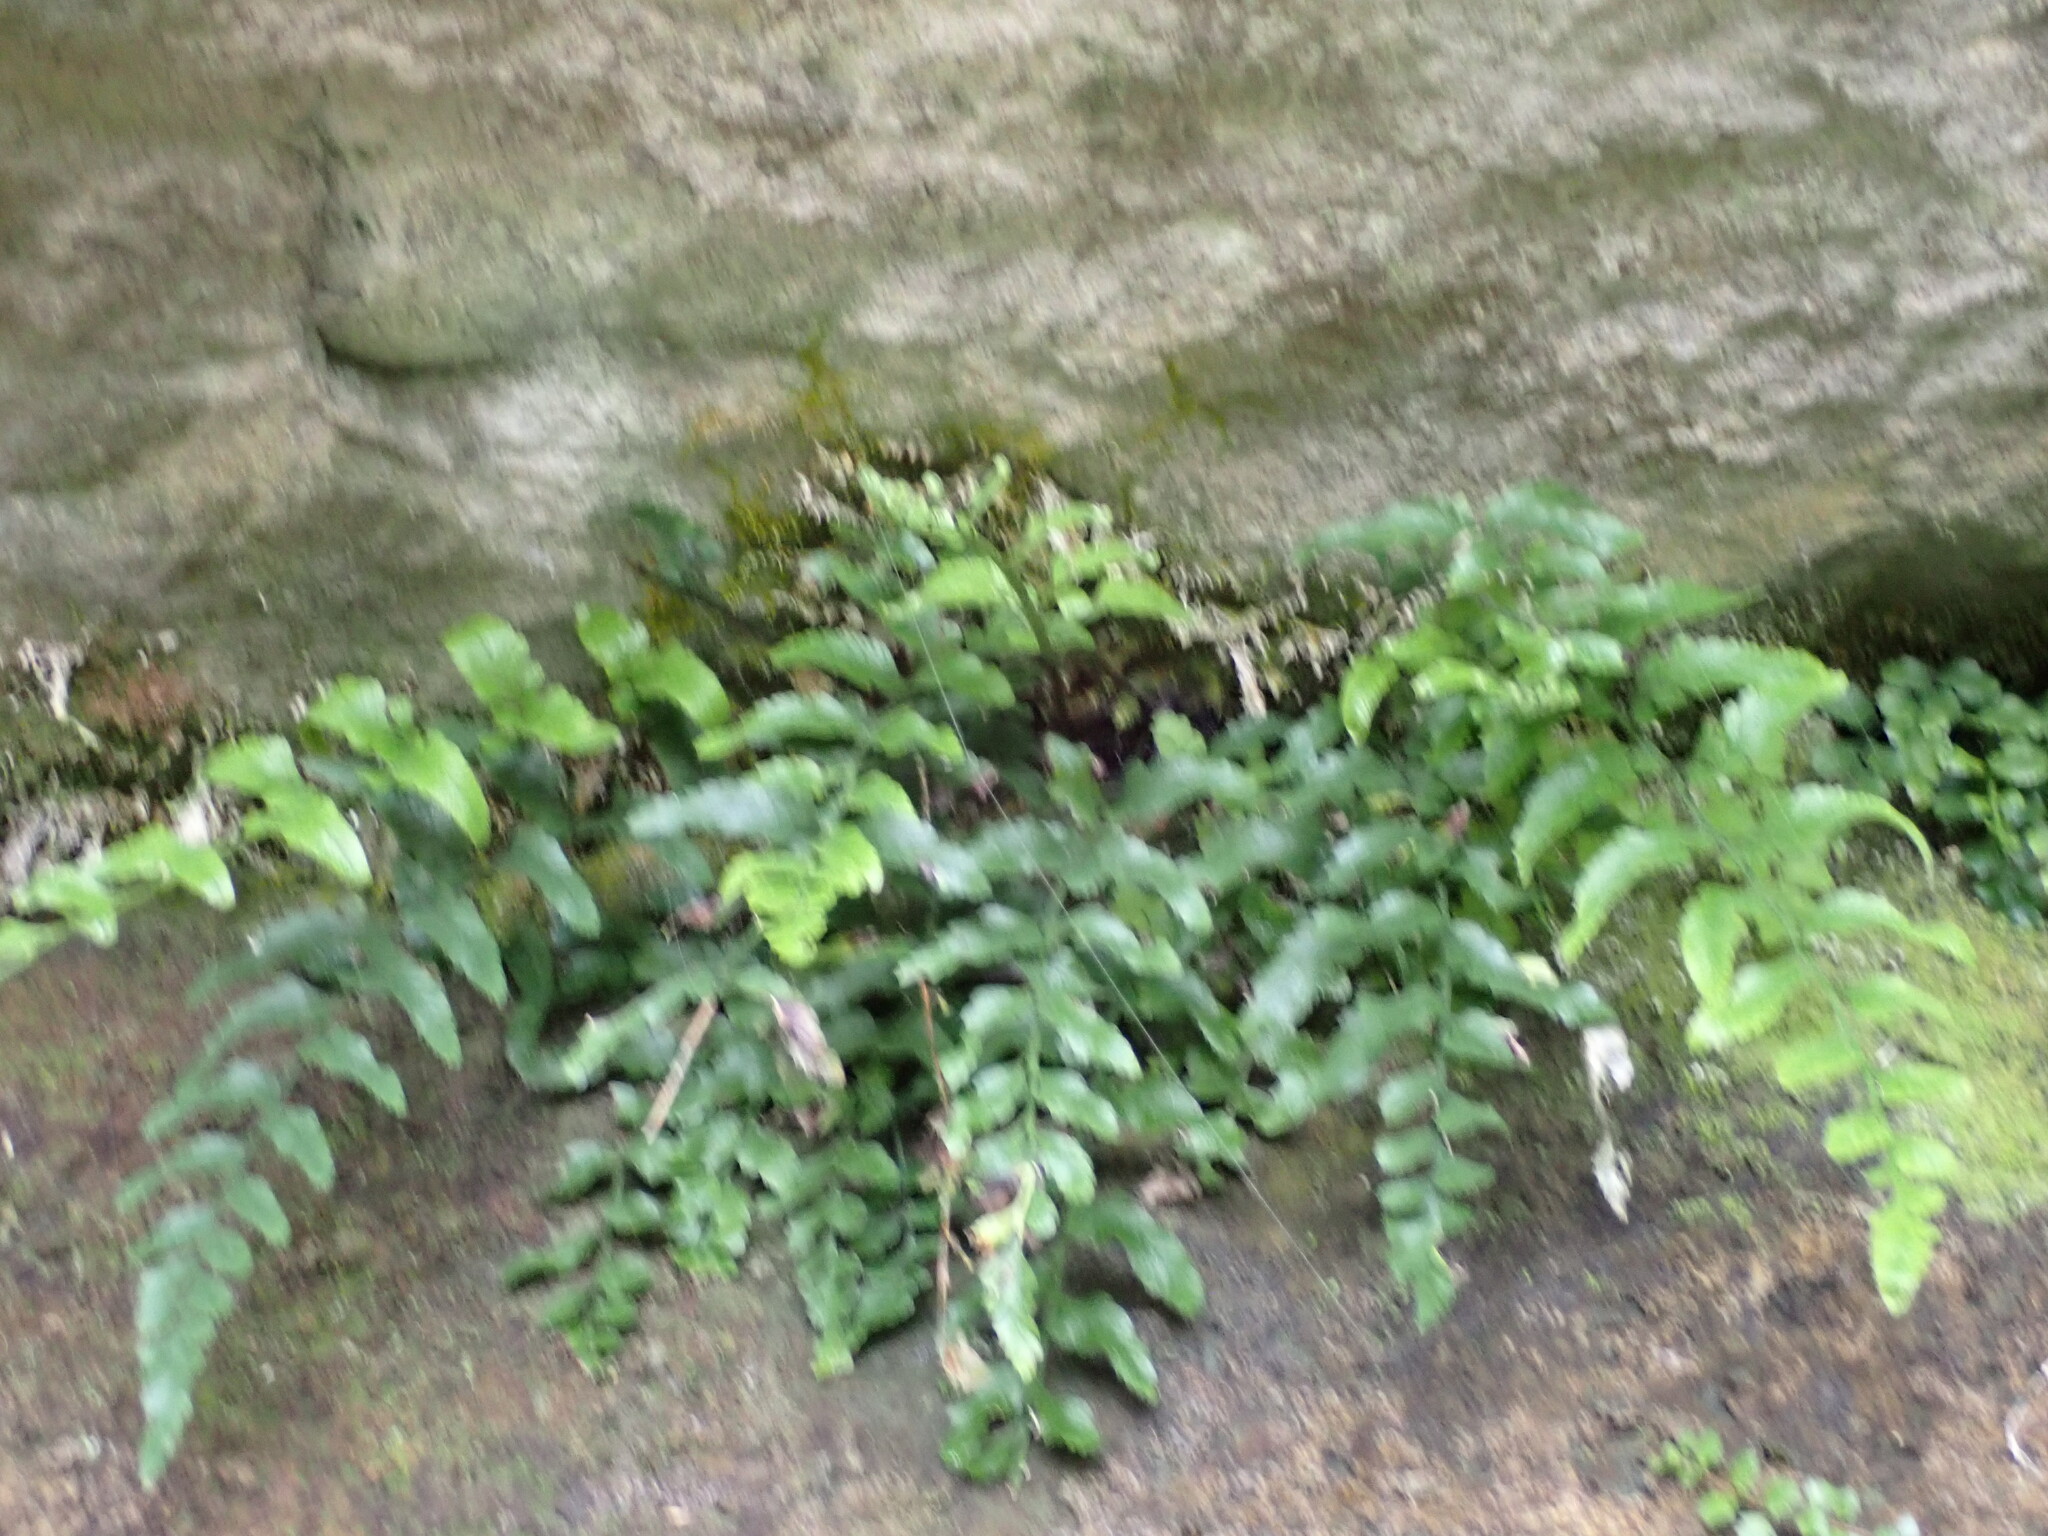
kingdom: Plantae
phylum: Tracheophyta
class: Polypodiopsida
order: Polypodiales
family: Aspleniaceae
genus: Asplenium
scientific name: Asplenium lyallii
